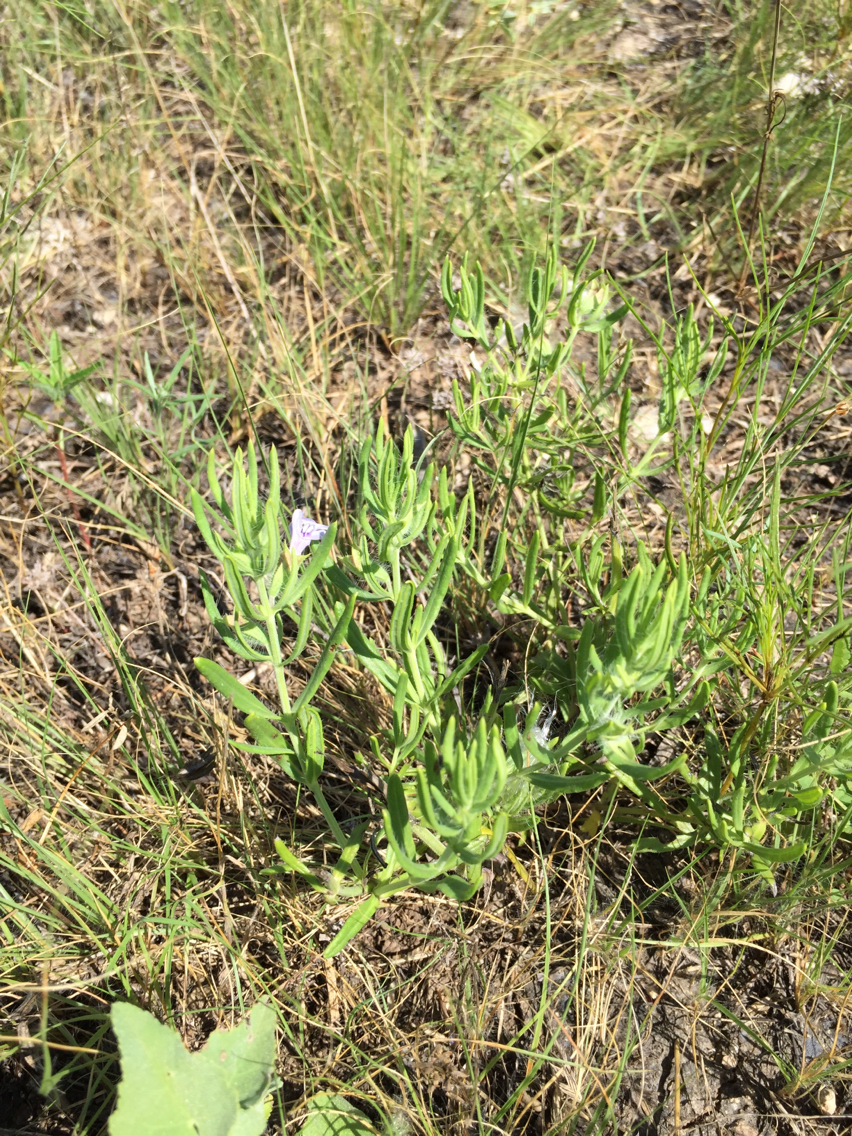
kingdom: Plantae
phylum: Tracheophyta
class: Magnoliopsida
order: Lamiales
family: Lamiaceae
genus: Salvia
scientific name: Salvia texana
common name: Texas sage
